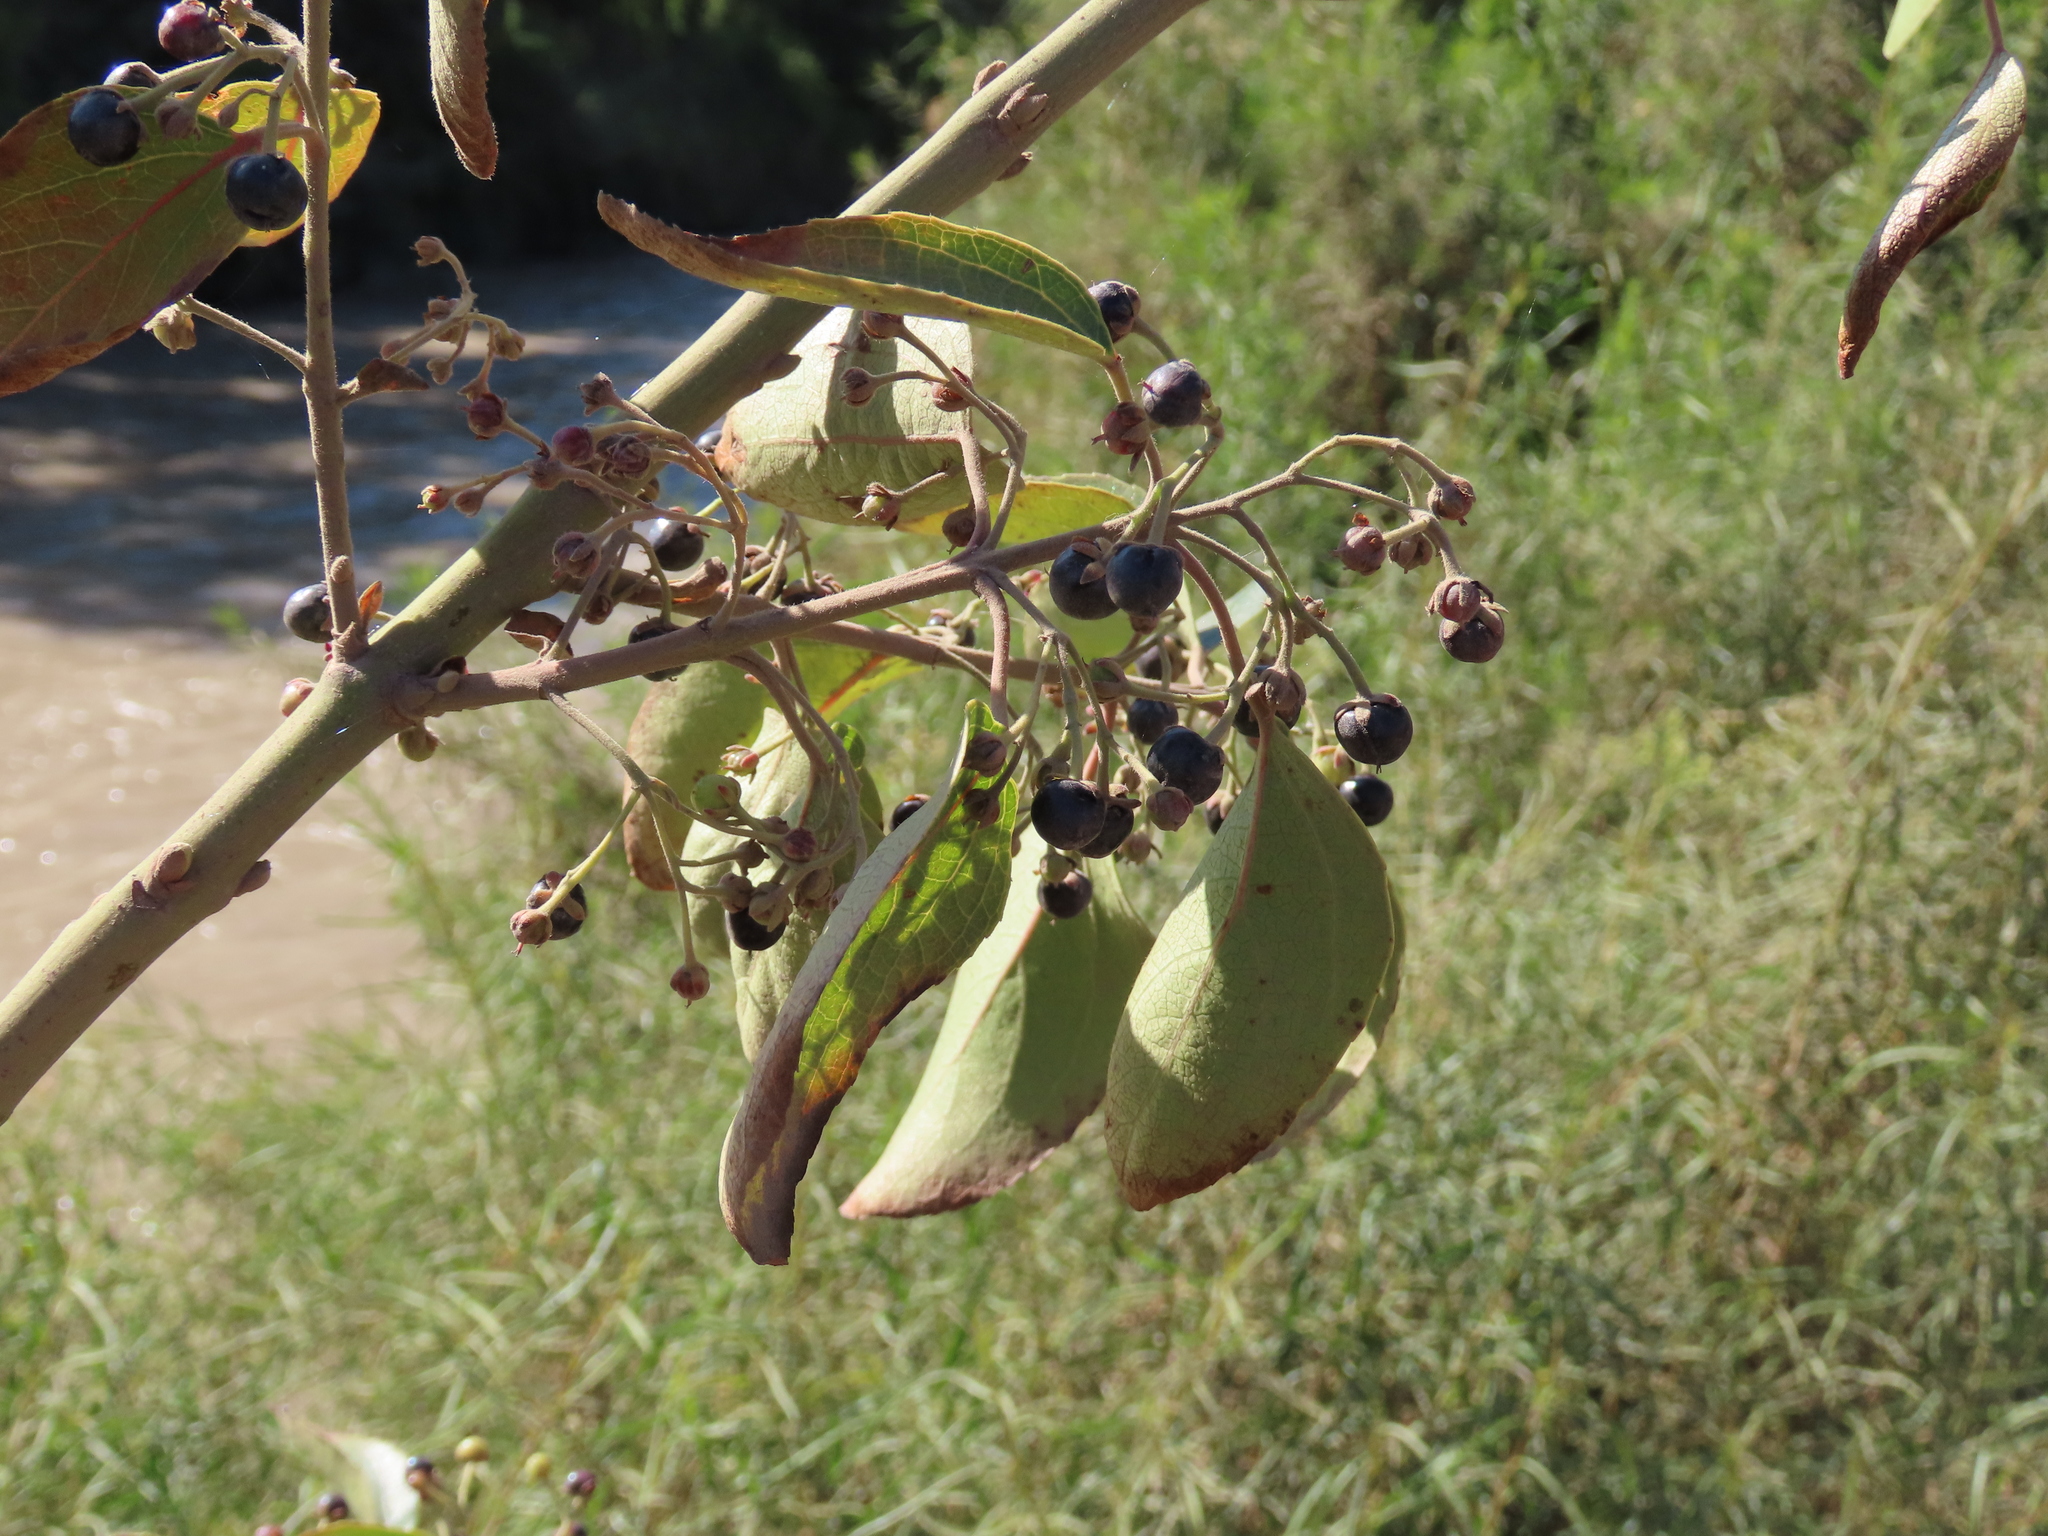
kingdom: Plantae
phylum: Tracheophyta
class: Magnoliopsida
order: Oxalidales
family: Elaeocarpaceae
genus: Aristotelia
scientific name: Aristotelia chilensis
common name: Maquei
